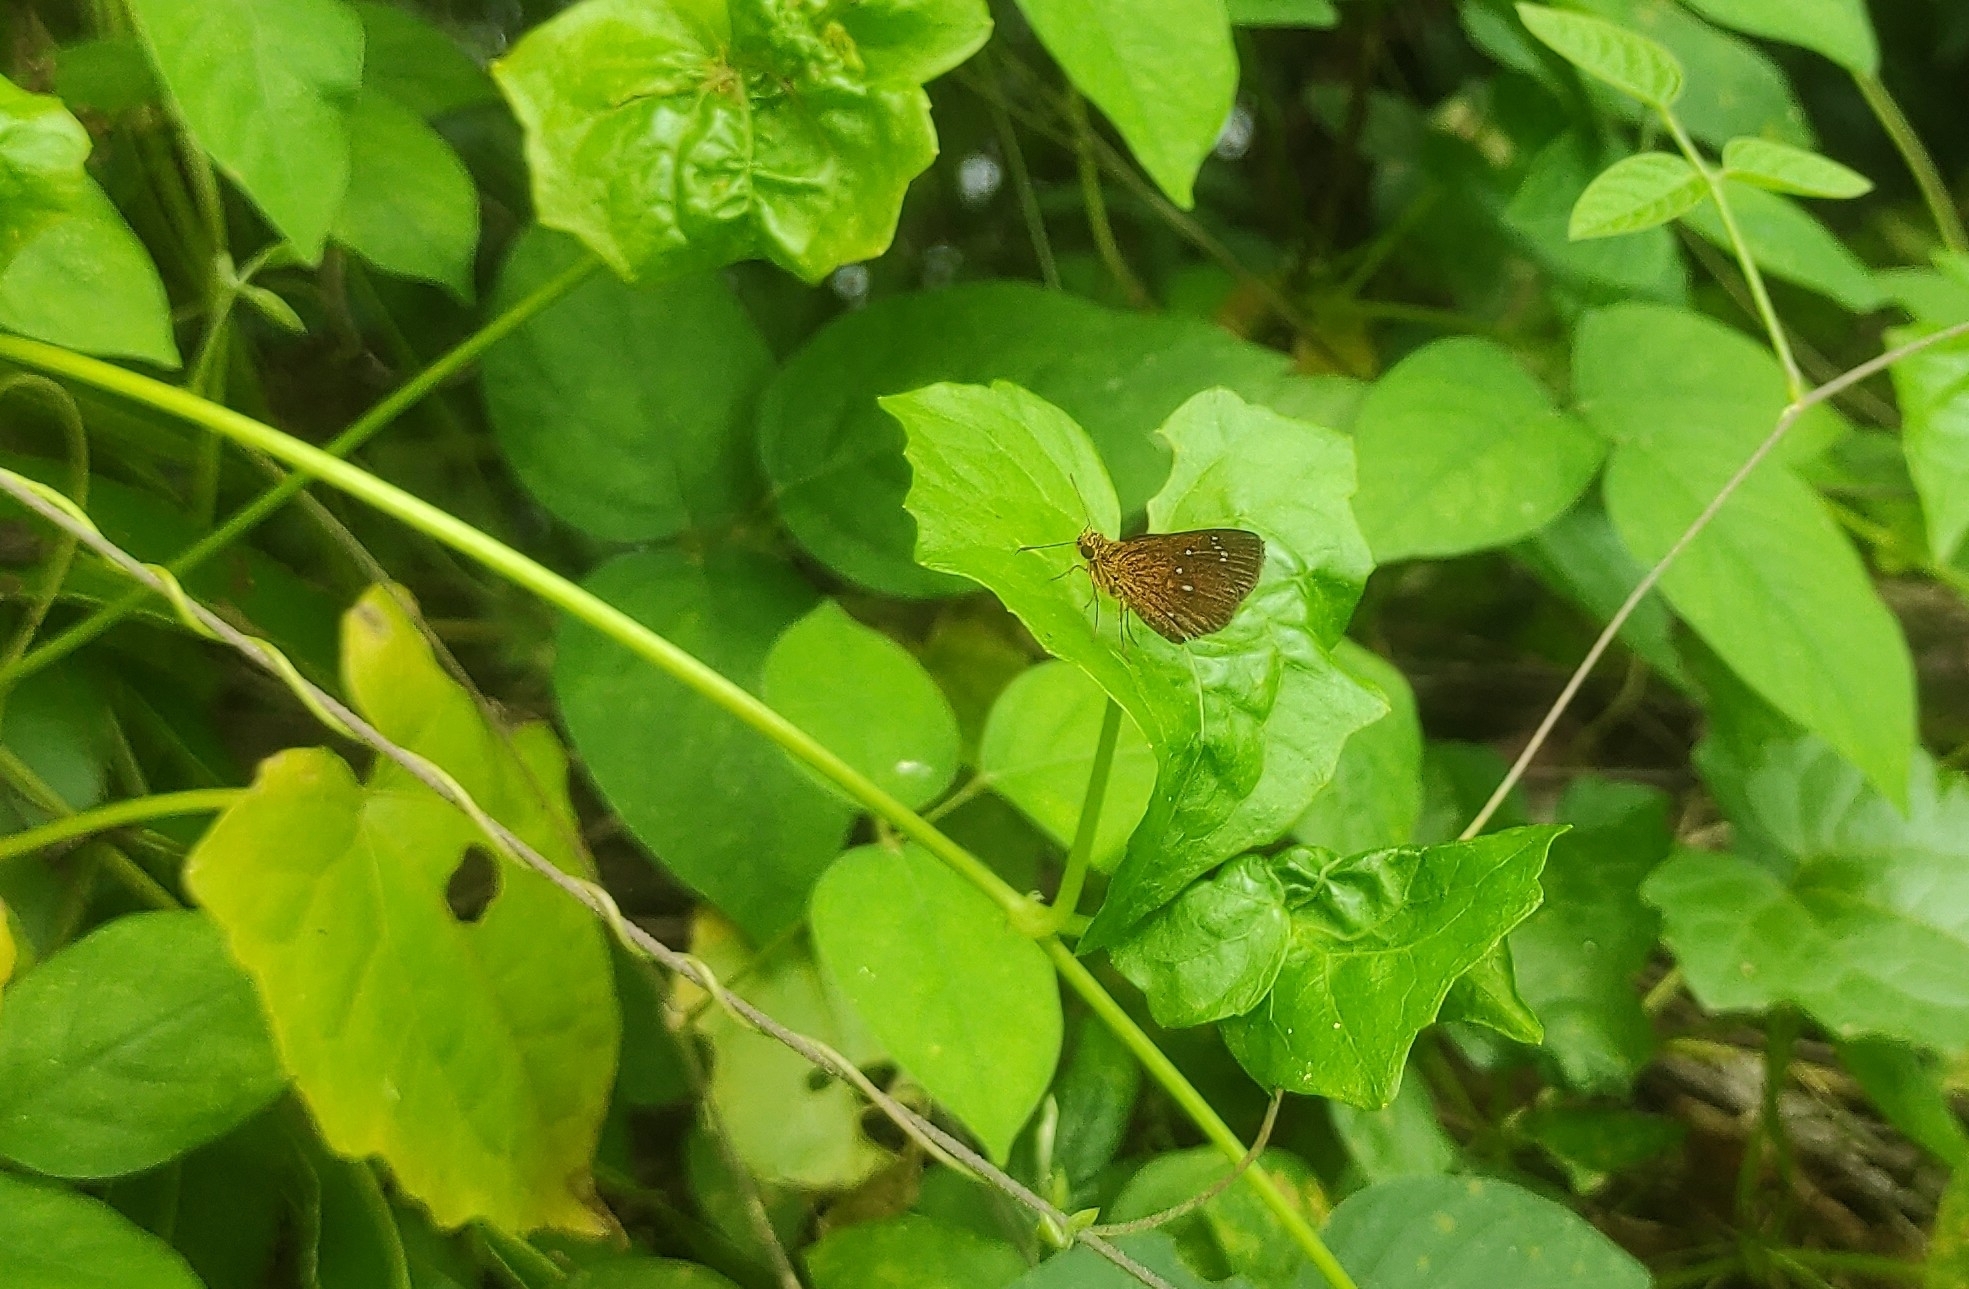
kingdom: Animalia
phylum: Arthropoda
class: Insecta
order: Lepidoptera
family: Hesperiidae
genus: Iambrix
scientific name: Iambrix salsala
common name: Chestnut bob
